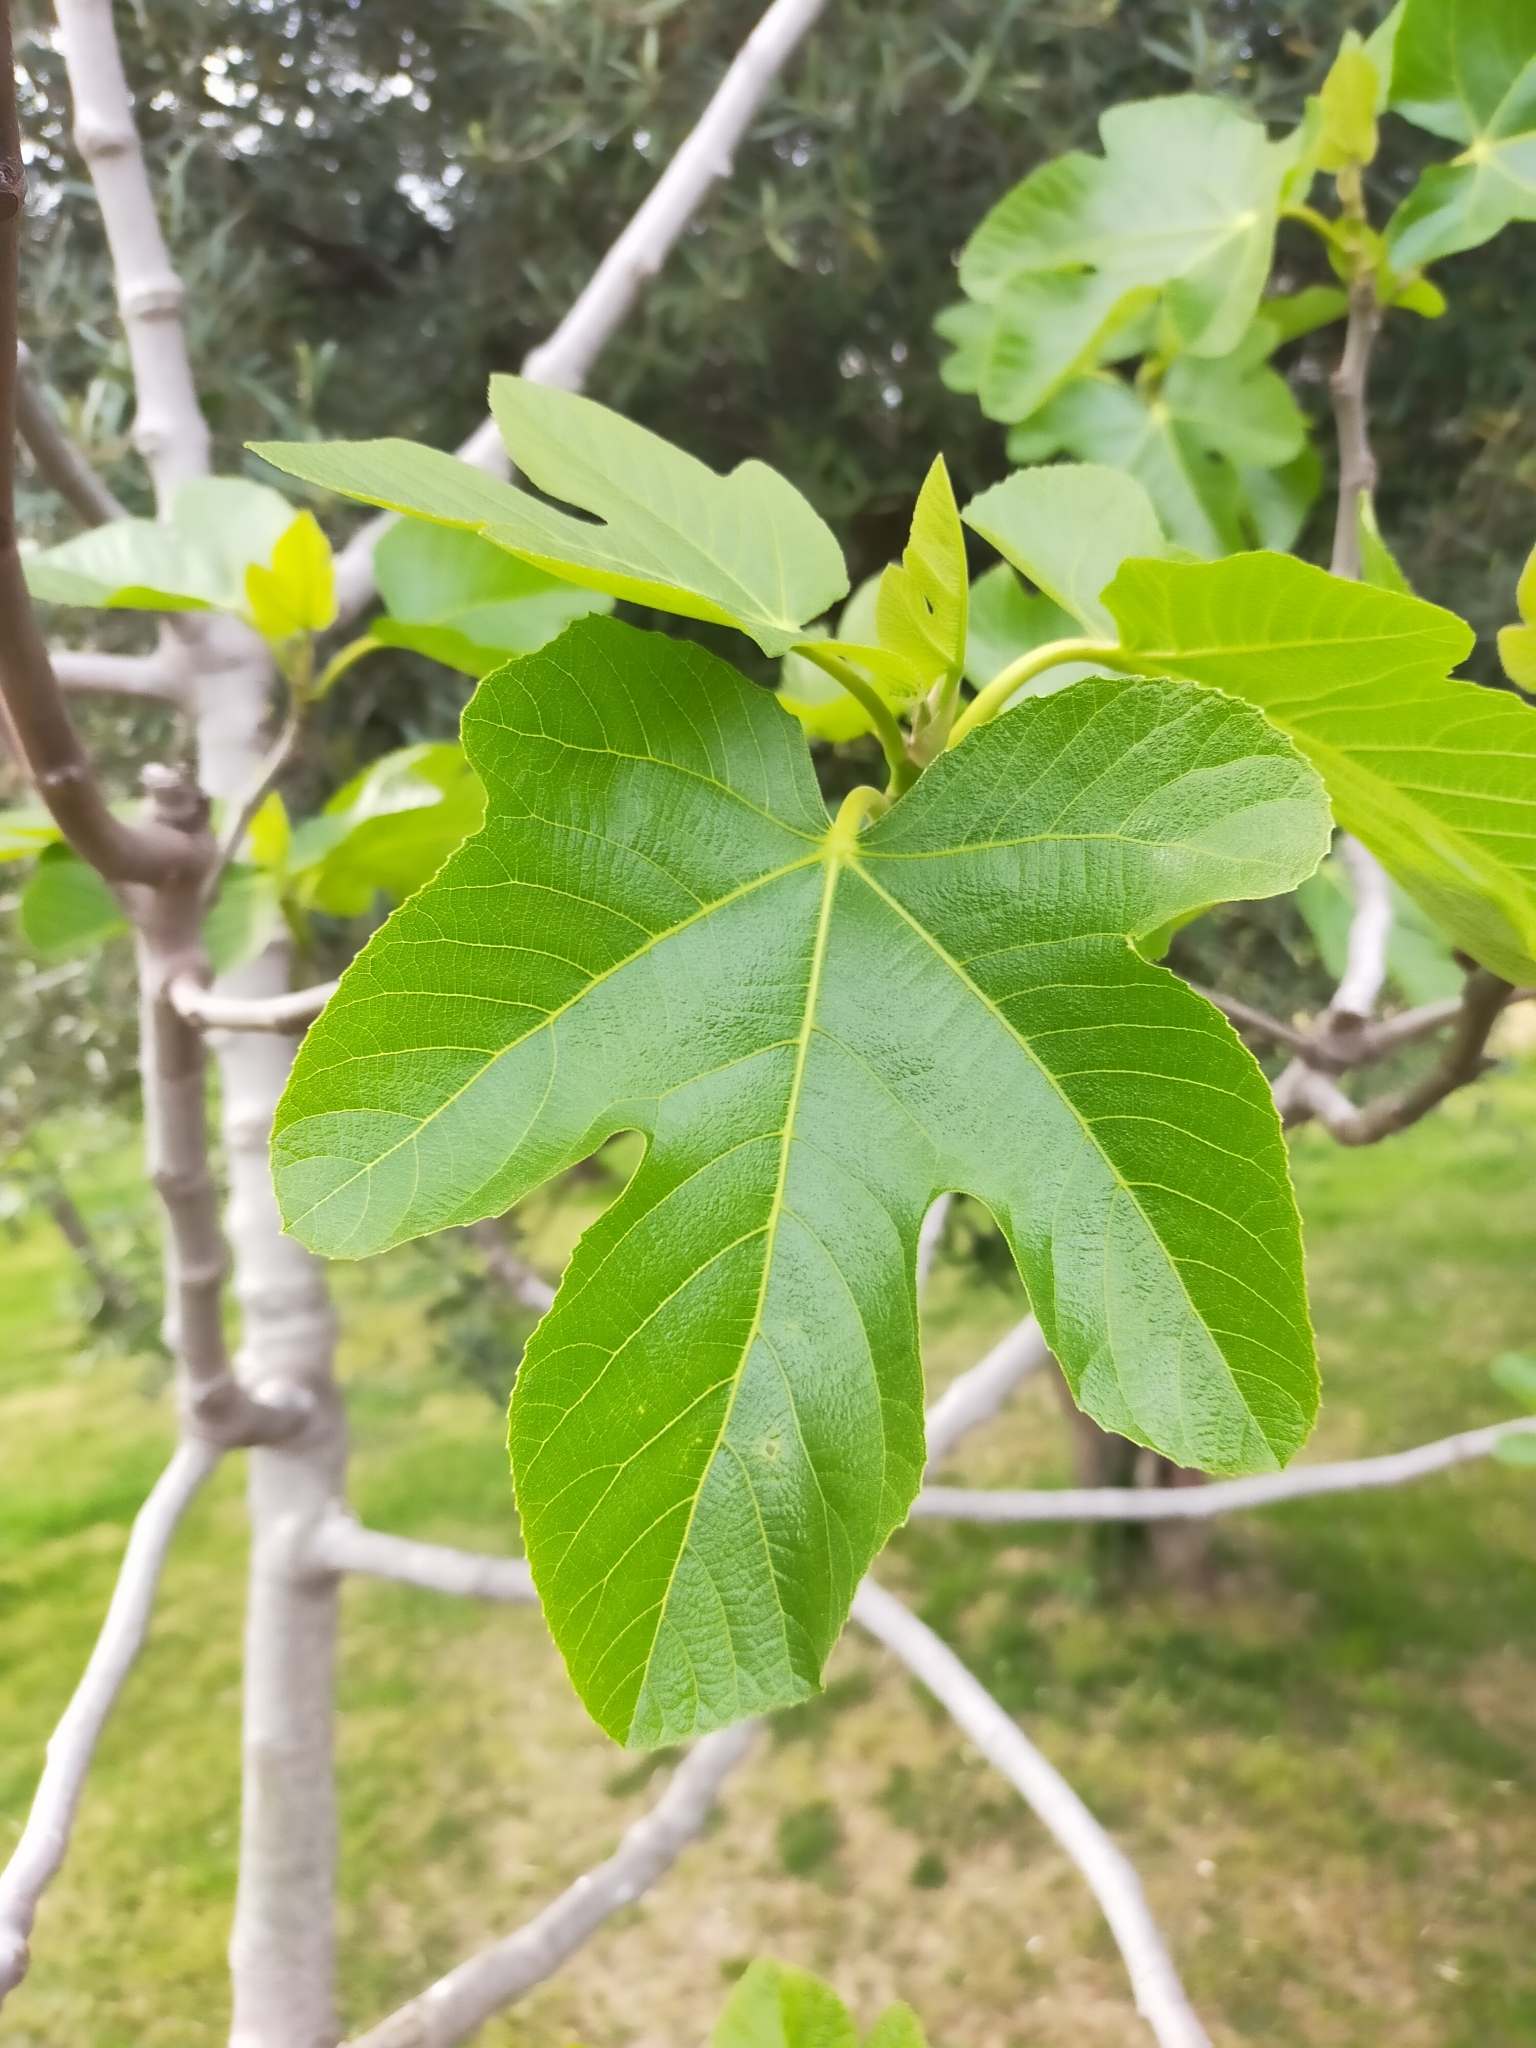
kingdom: Plantae
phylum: Tracheophyta
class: Magnoliopsida
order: Rosales
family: Moraceae
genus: Ficus
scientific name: Ficus carica
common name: Fig
